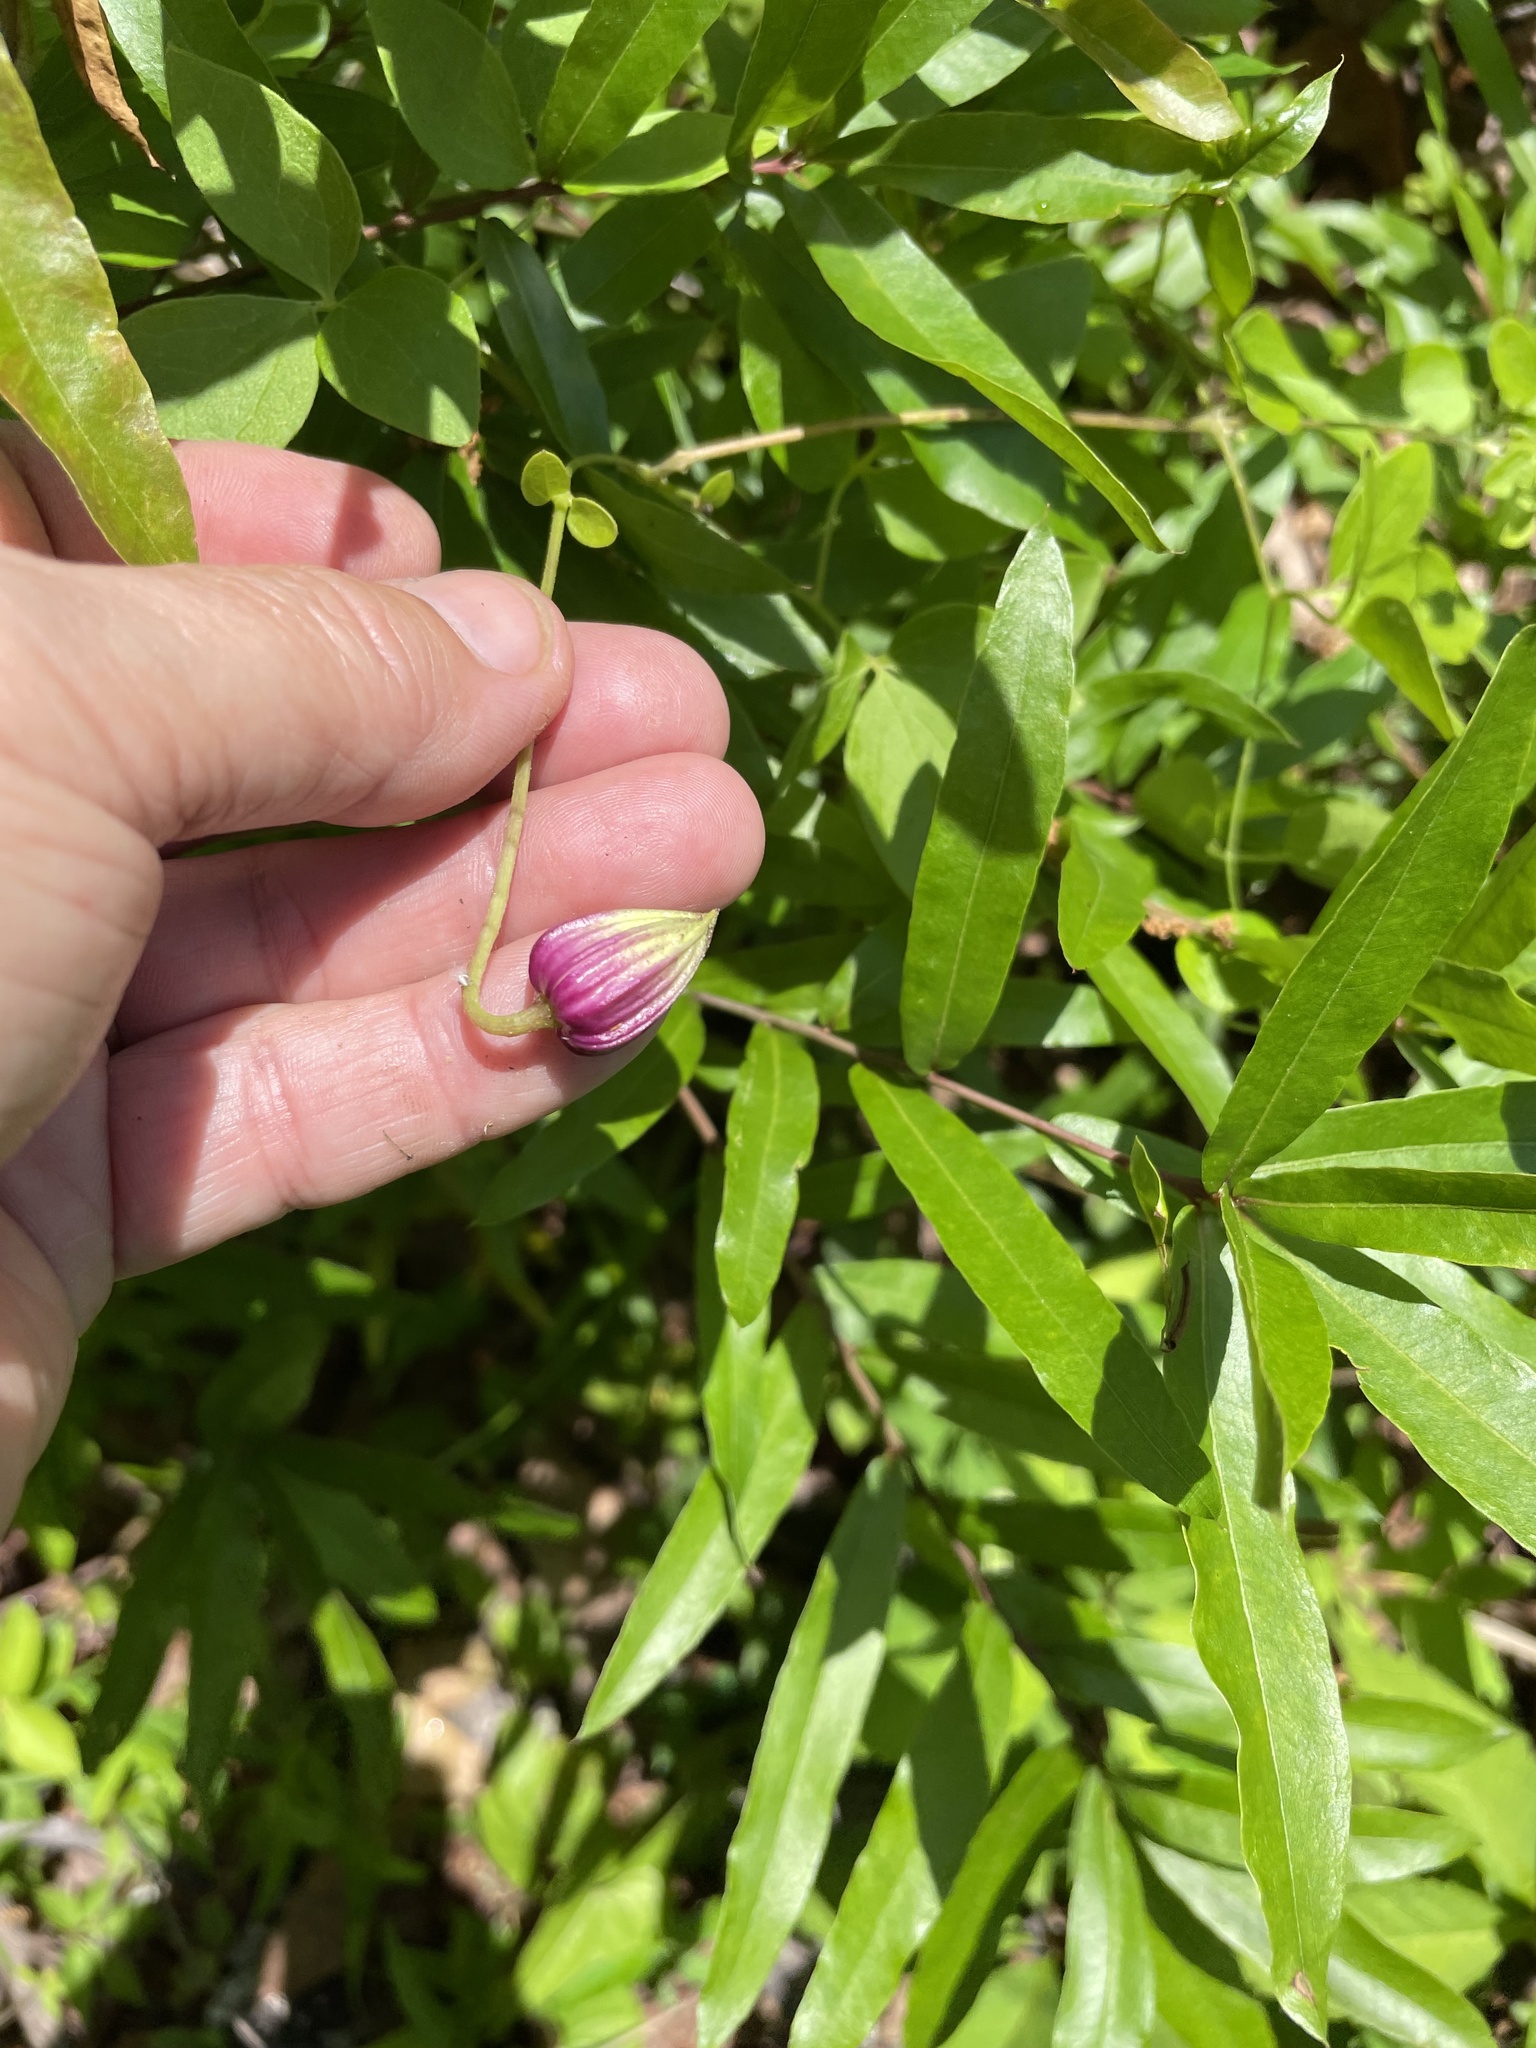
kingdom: Plantae
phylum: Tracheophyta
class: Magnoliopsida
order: Ranunculales
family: Ranunculaceae
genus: Clematis
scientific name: Clematis viorna
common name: Leather-flower
